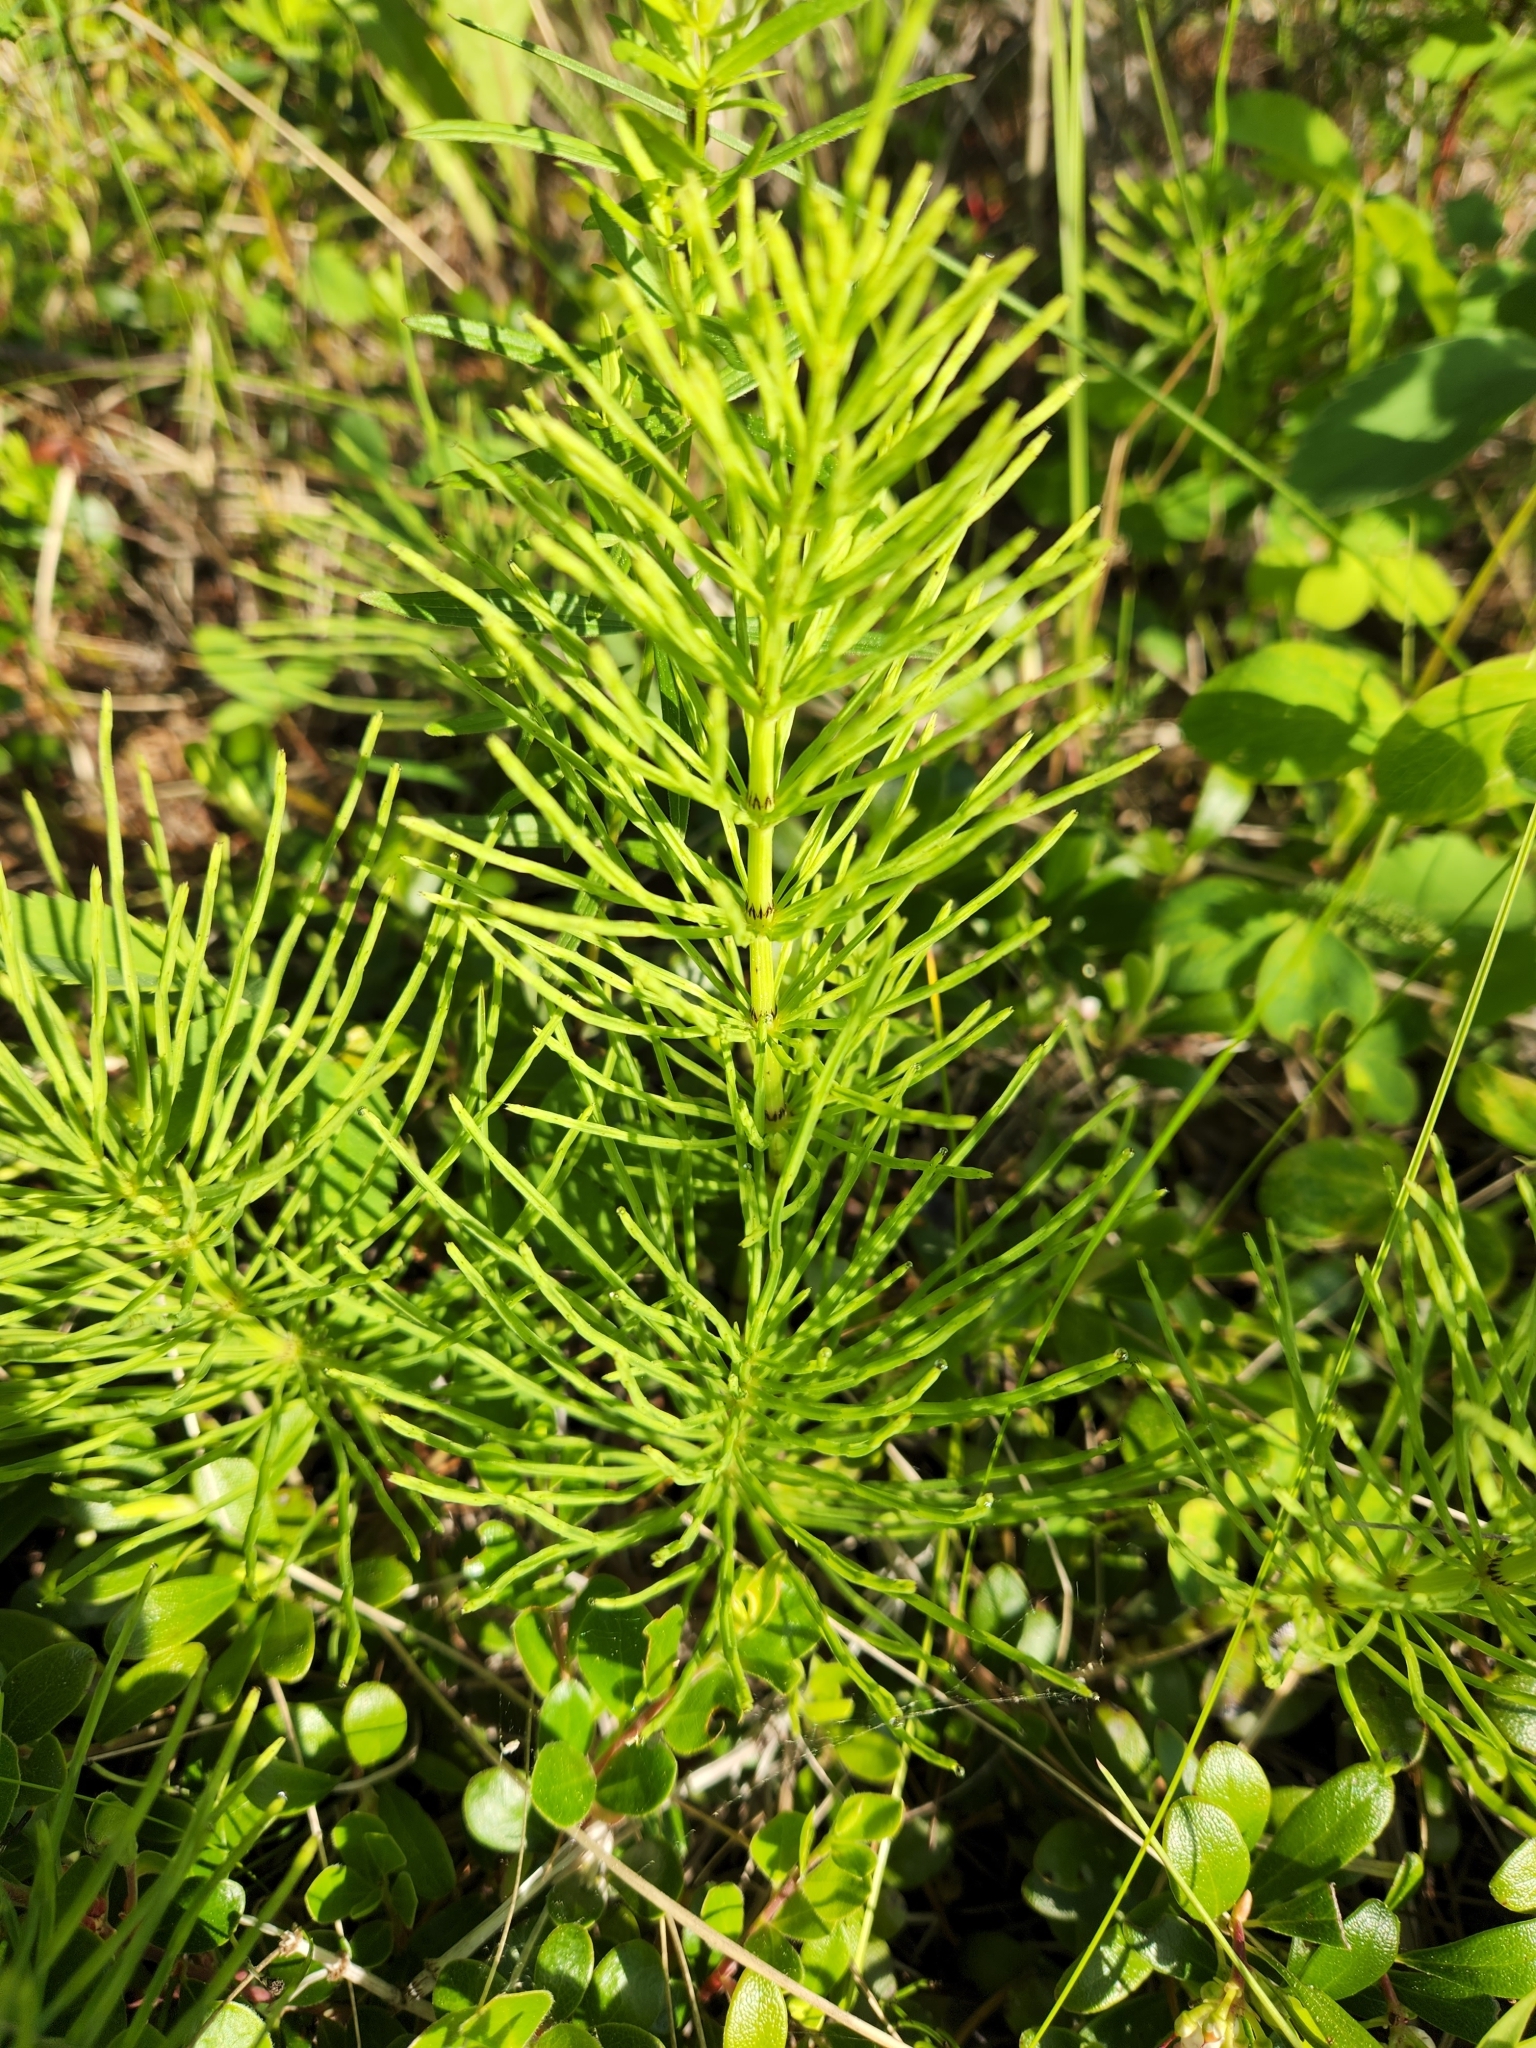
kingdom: Plantae
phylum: Tracheophyta
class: Polypodiopsida
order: Equisetales
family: Equisetaceae
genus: Equisetum
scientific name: Equisetum arvense
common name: Field horsetail
